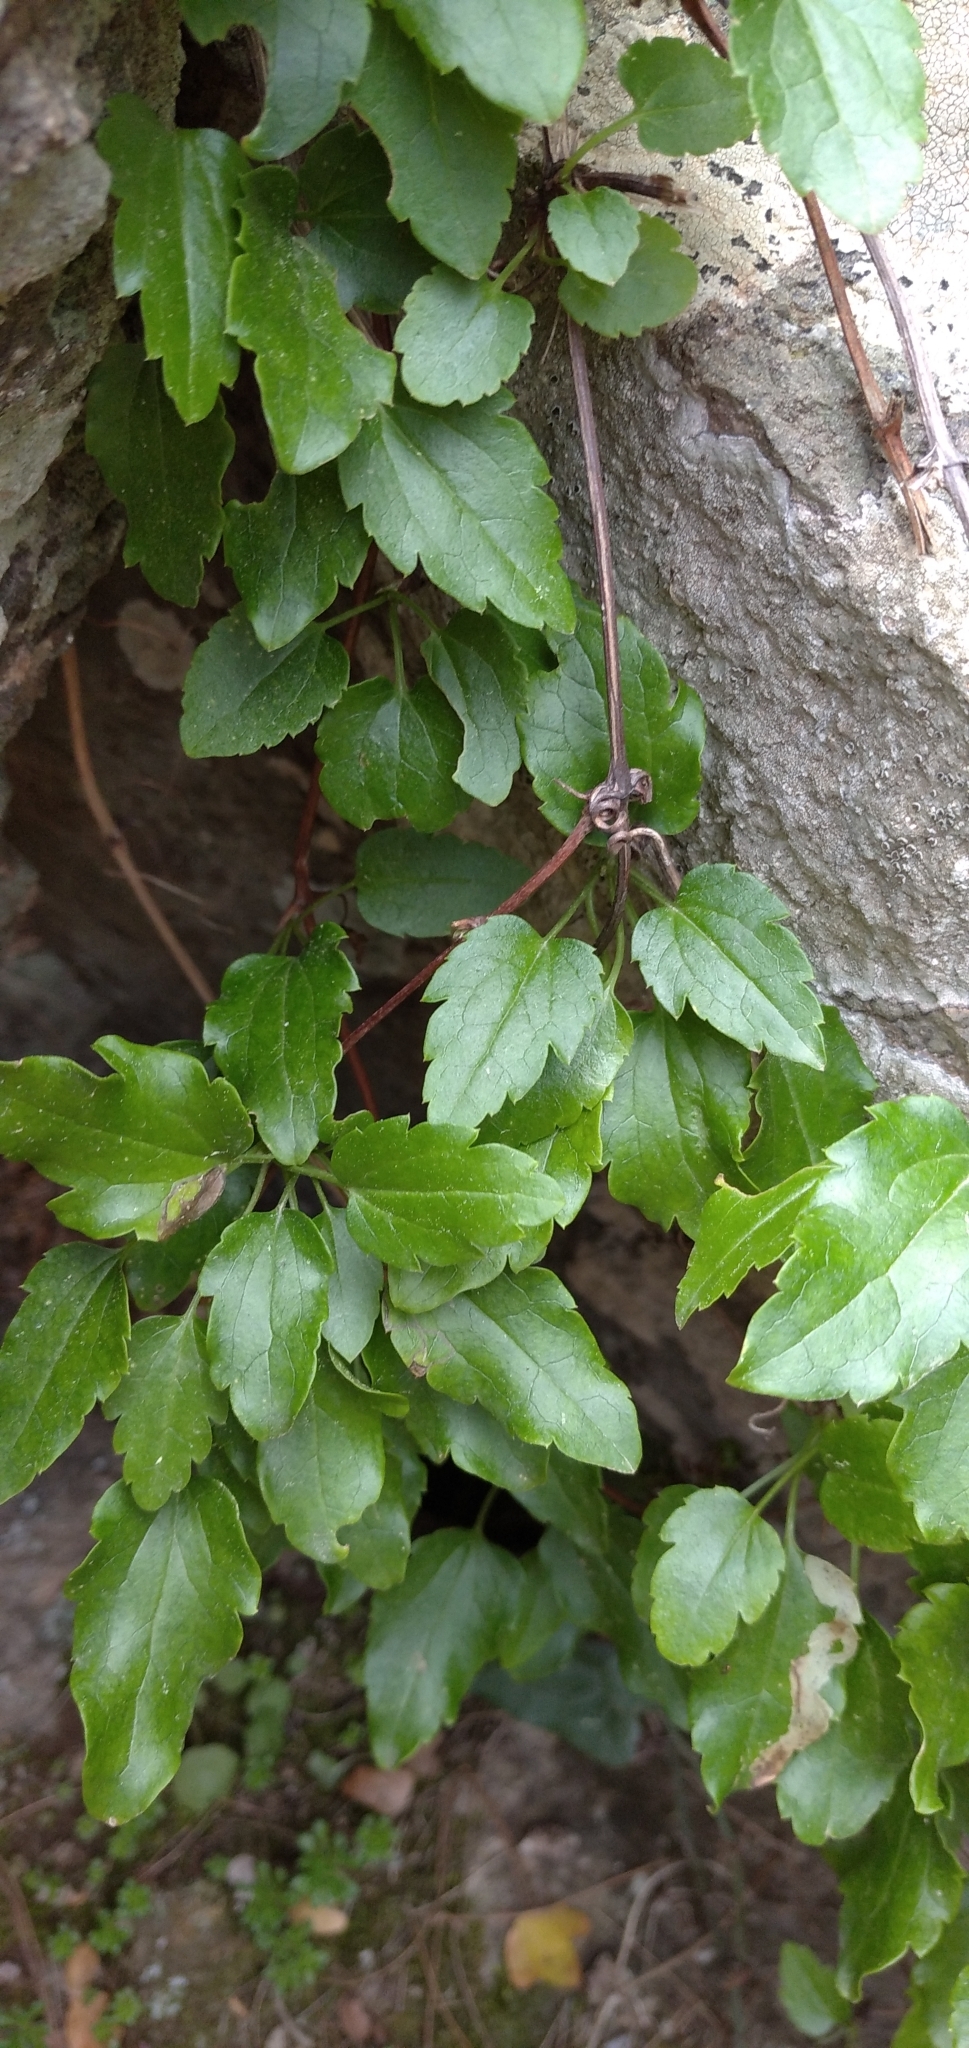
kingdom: Plantae
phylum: Tracheophyta
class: Magnoliopsida
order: Ranunculales
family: Ranunculaceae
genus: Clematis
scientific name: Clematis cirrhosa
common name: Early virgin's-bower
